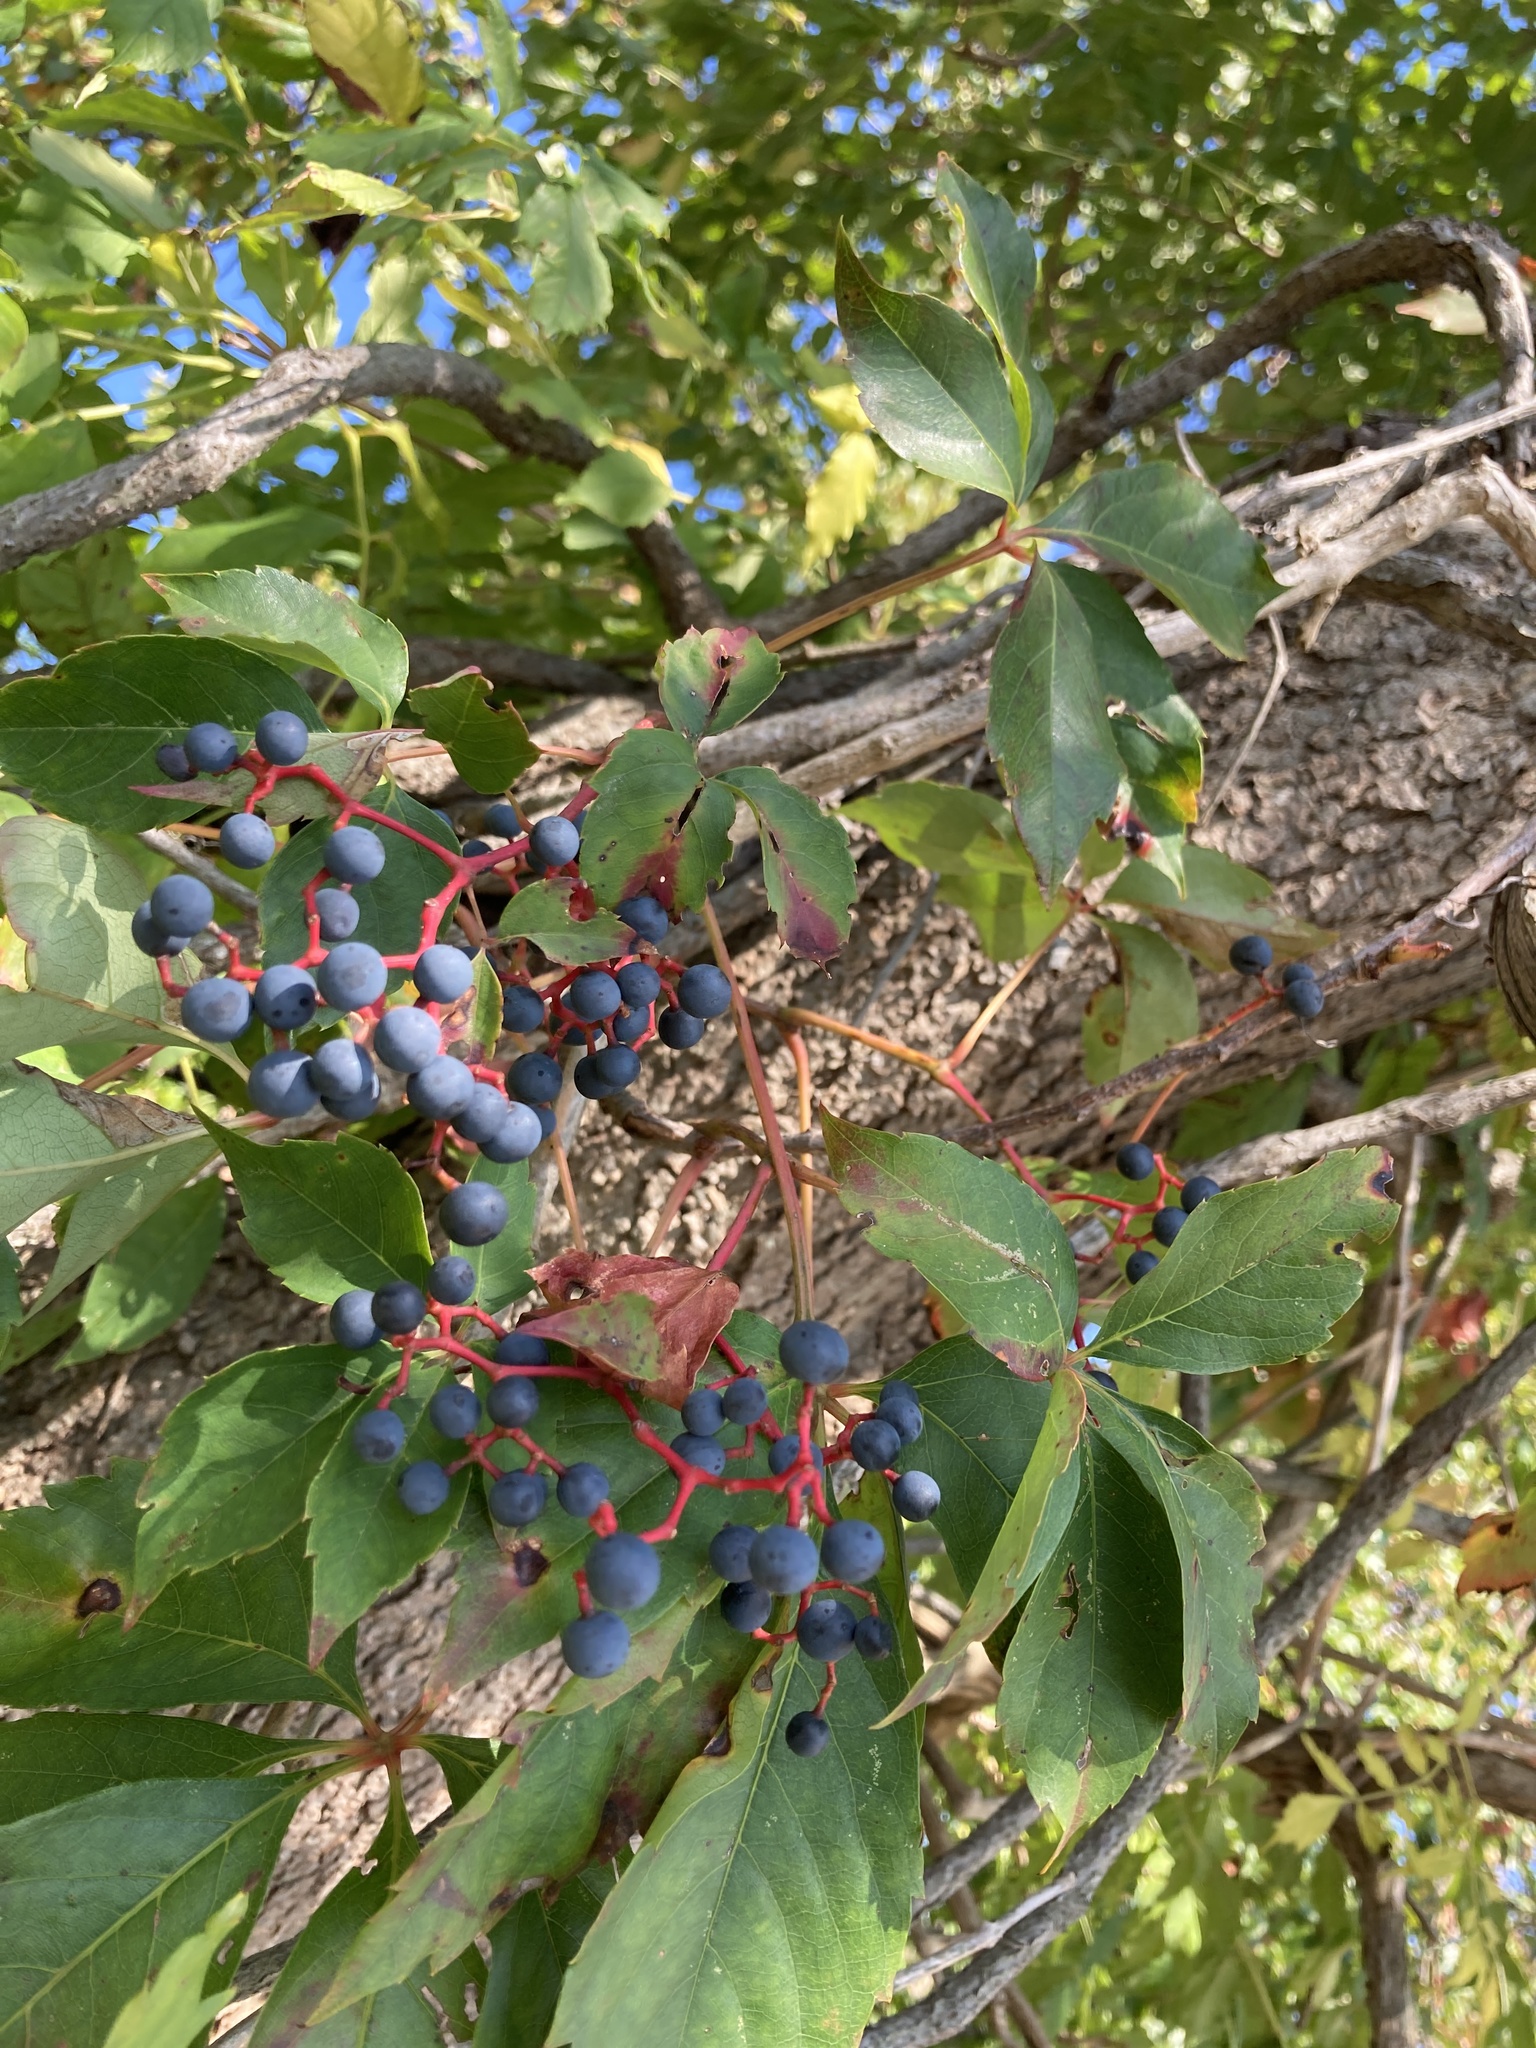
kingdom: Plantae
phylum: Tracheophyta
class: Magnoliopsida
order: Vitales
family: Vitaceae
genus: Parthenocissus
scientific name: Parthenocissus quinquefolia
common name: Virginia-creeper
